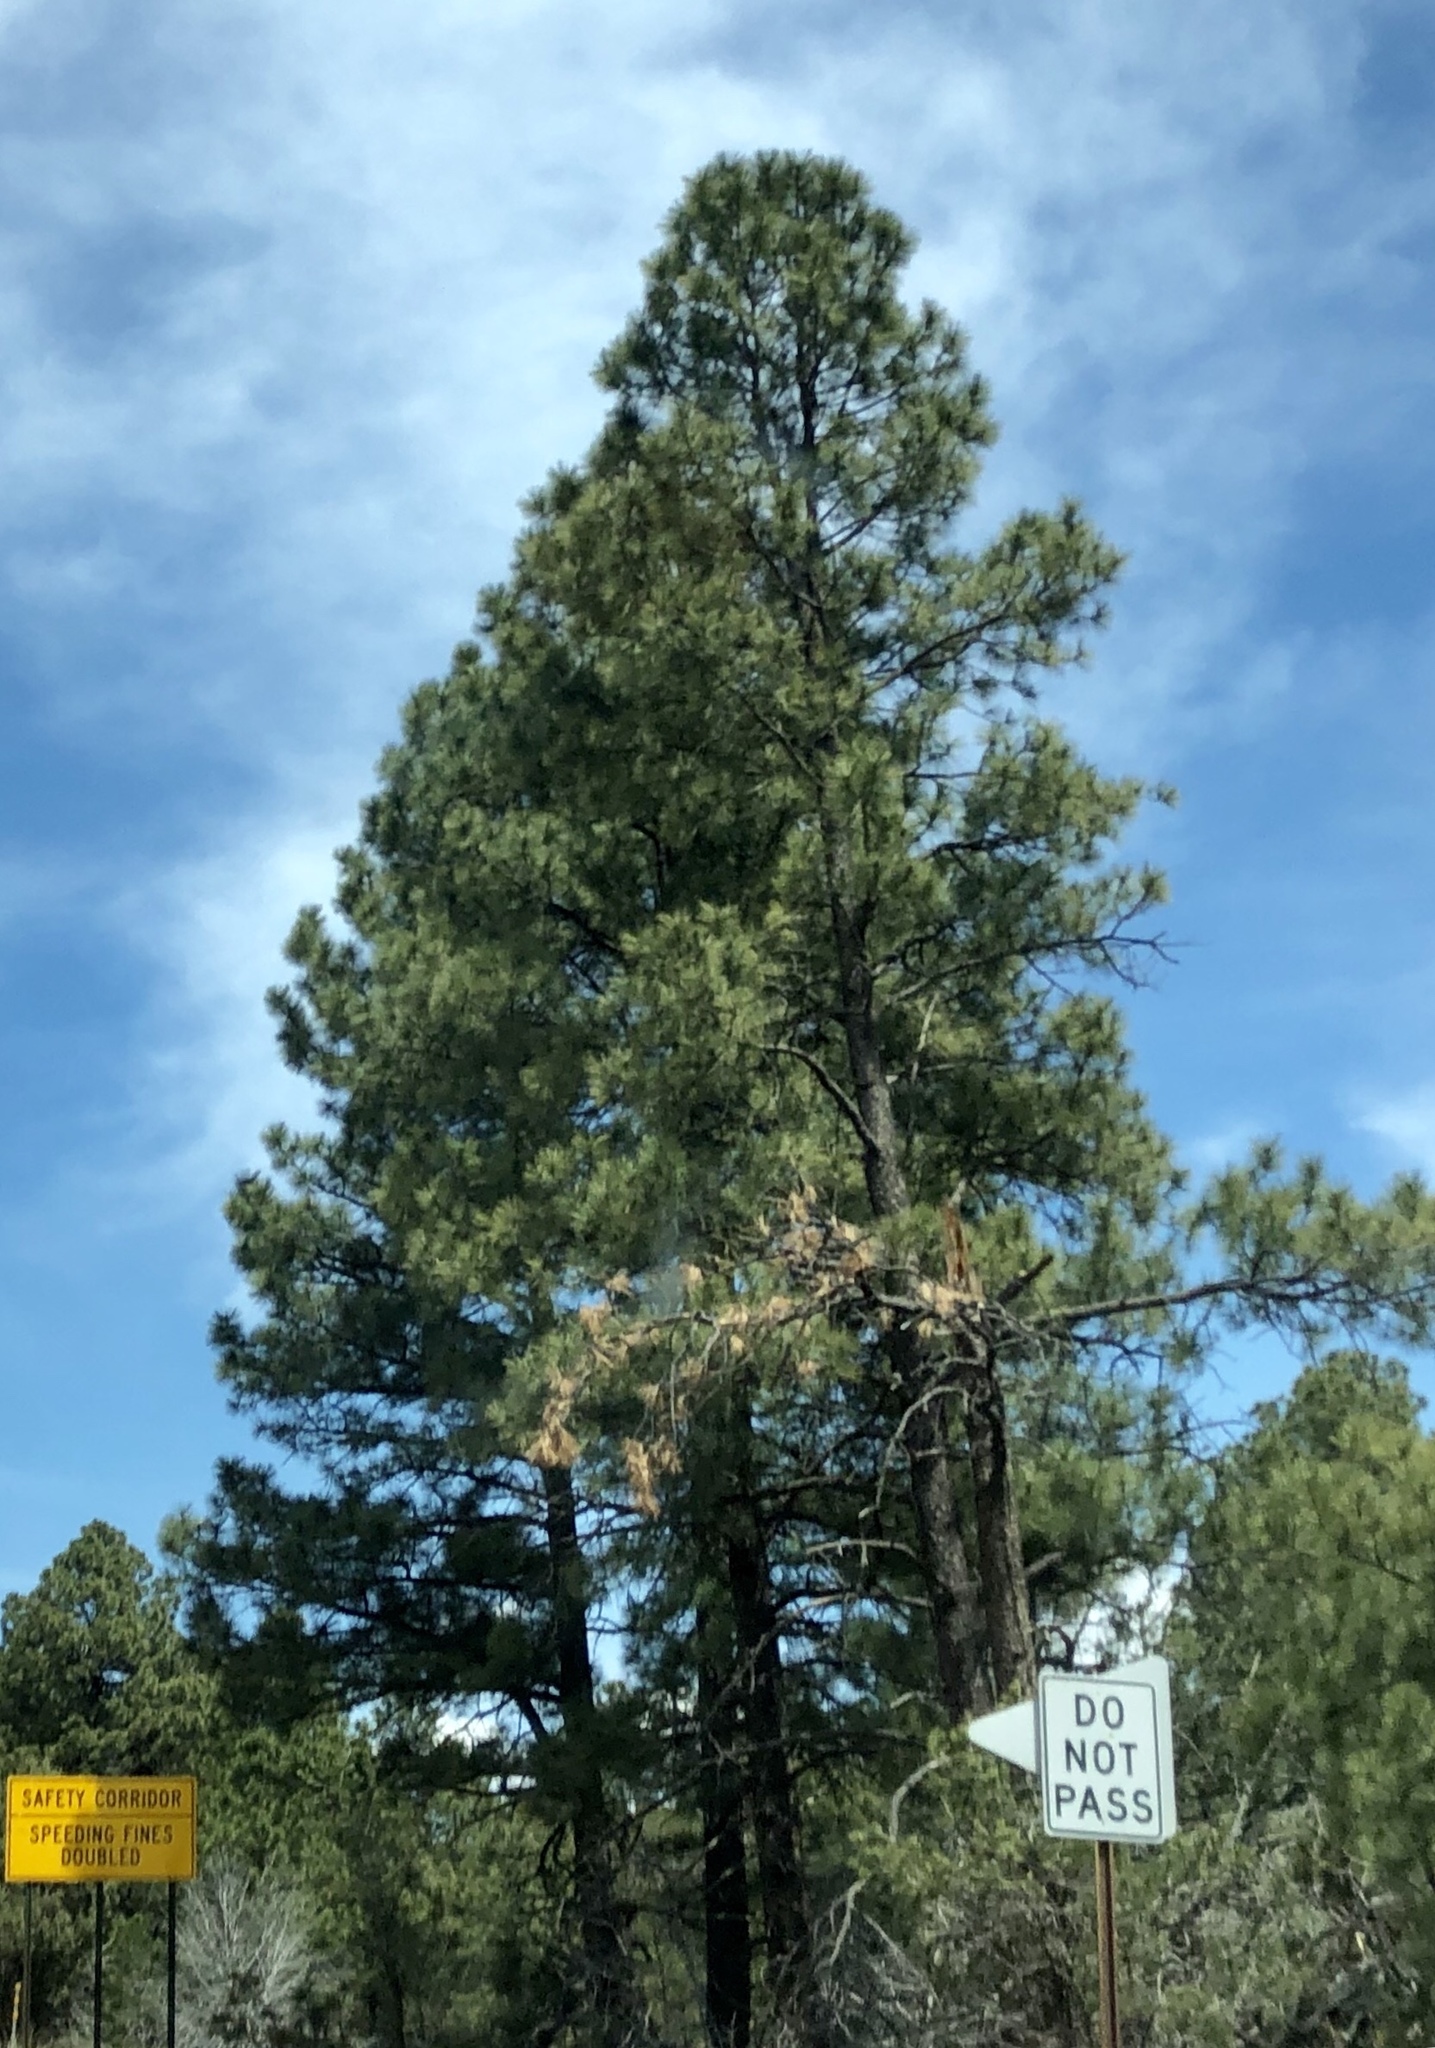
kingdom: Plantae
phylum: Tracheophyta
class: Pinopsida
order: Pinales
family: Pinaceae
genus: Pinus
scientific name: Pinus ponderosa
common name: Western yellow-pine
